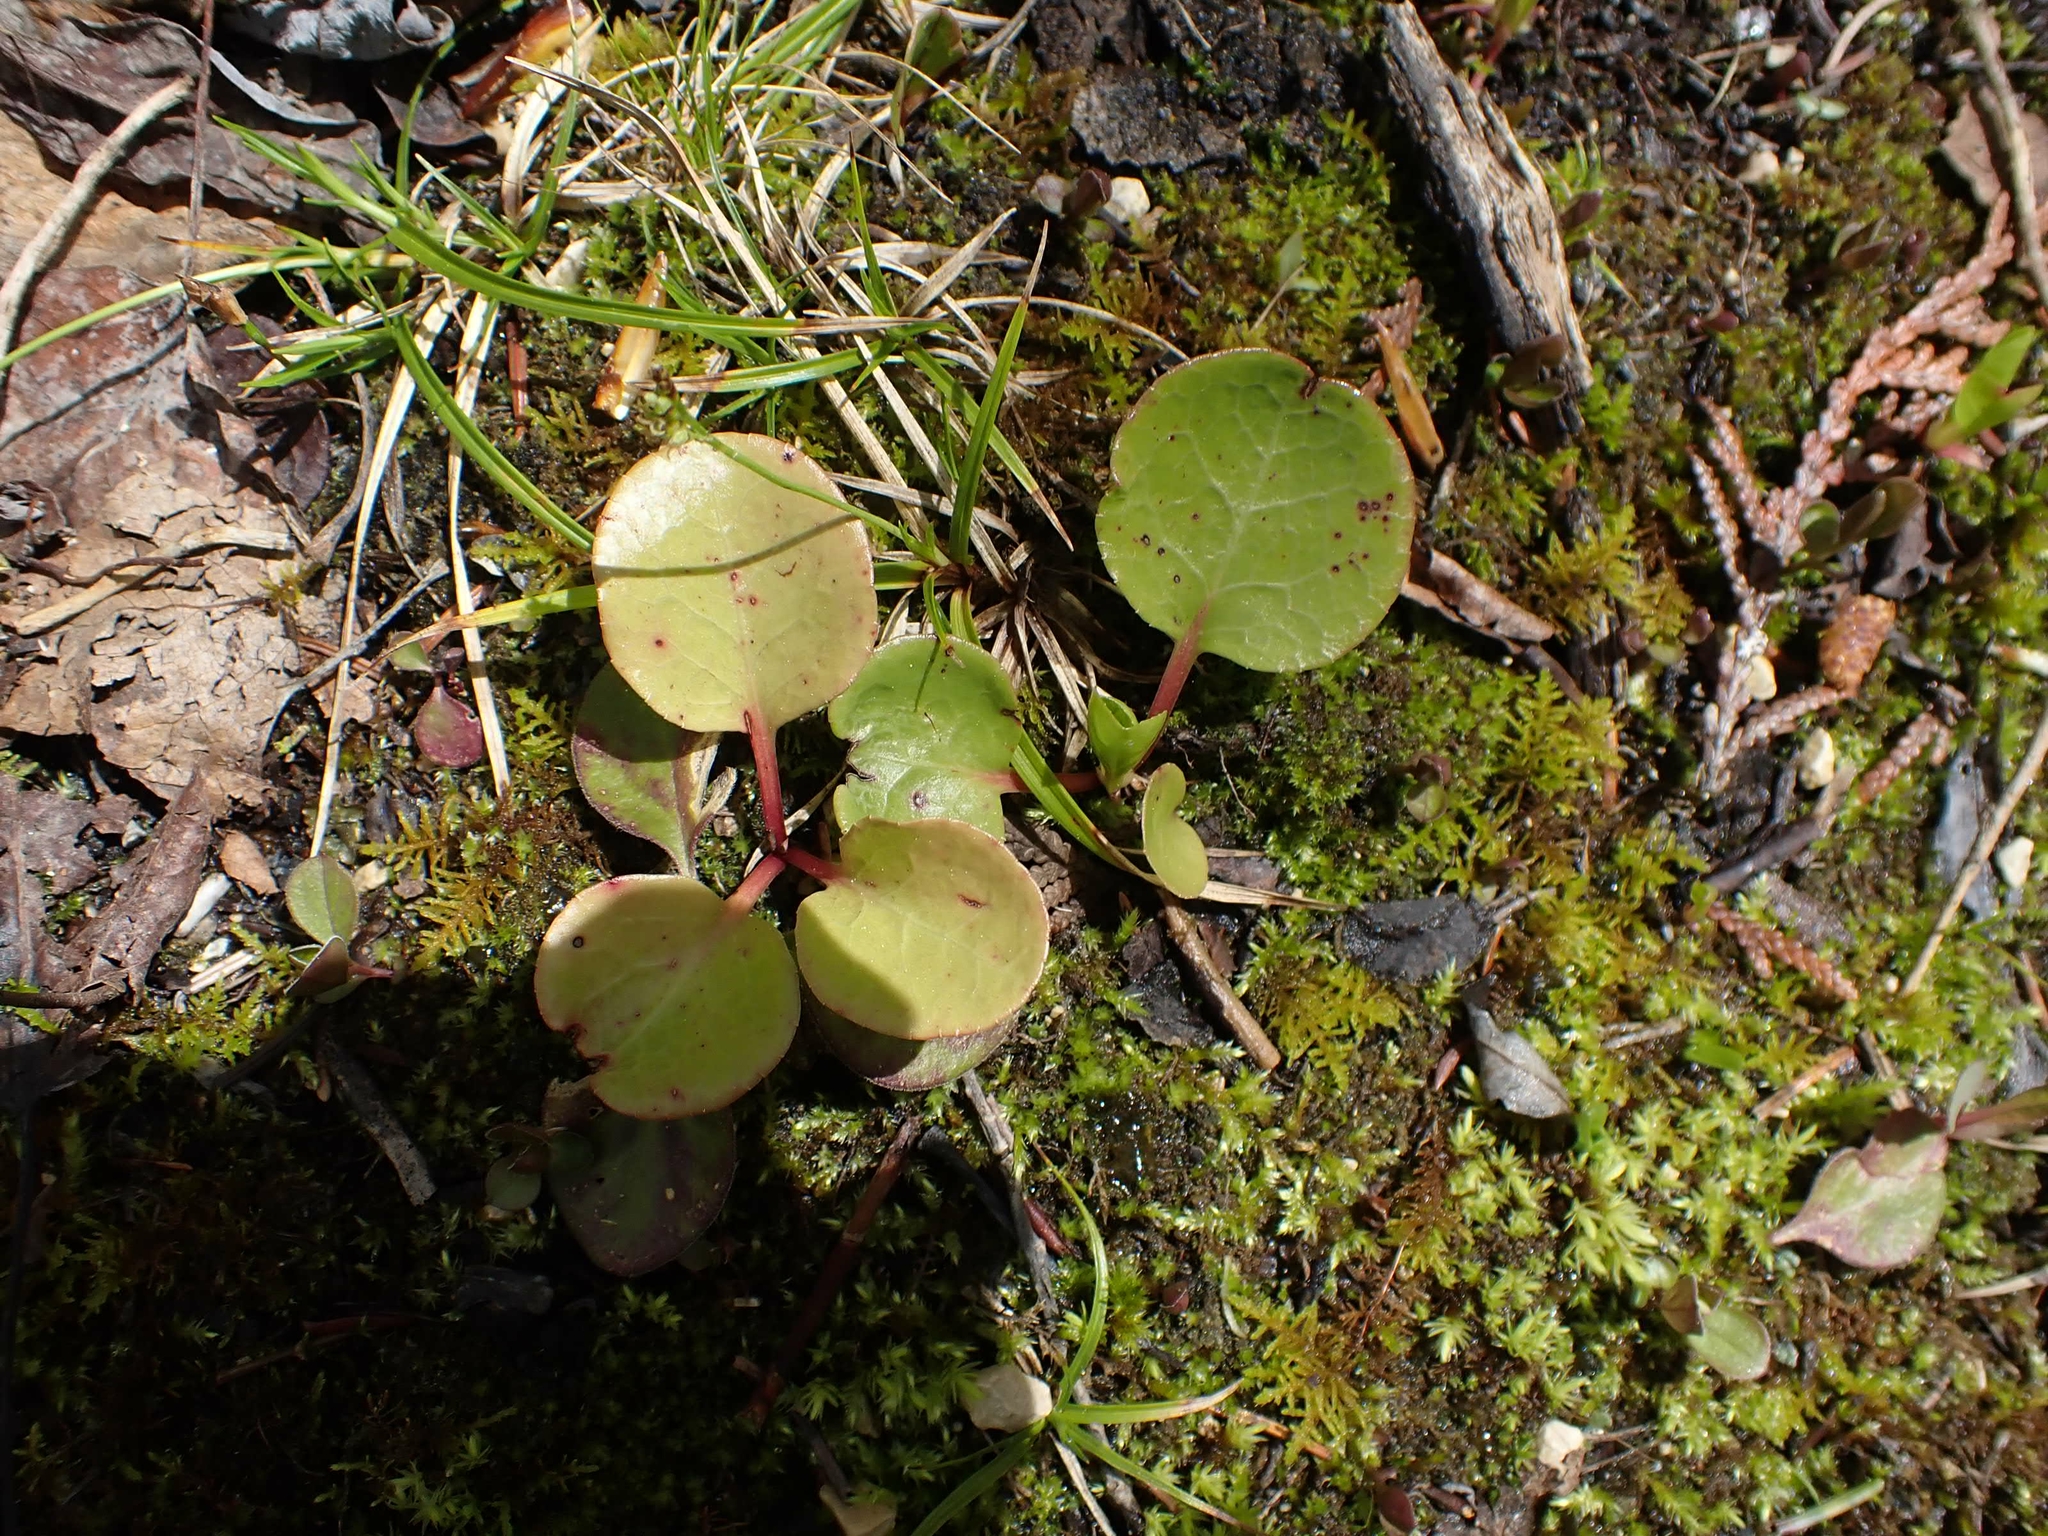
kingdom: Plantae
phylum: Tracheophyta
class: Magnoliopsida
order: Ericales
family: Ericaceae
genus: Pyrola
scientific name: Pyrola asarifolia
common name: Bog wintergreen
